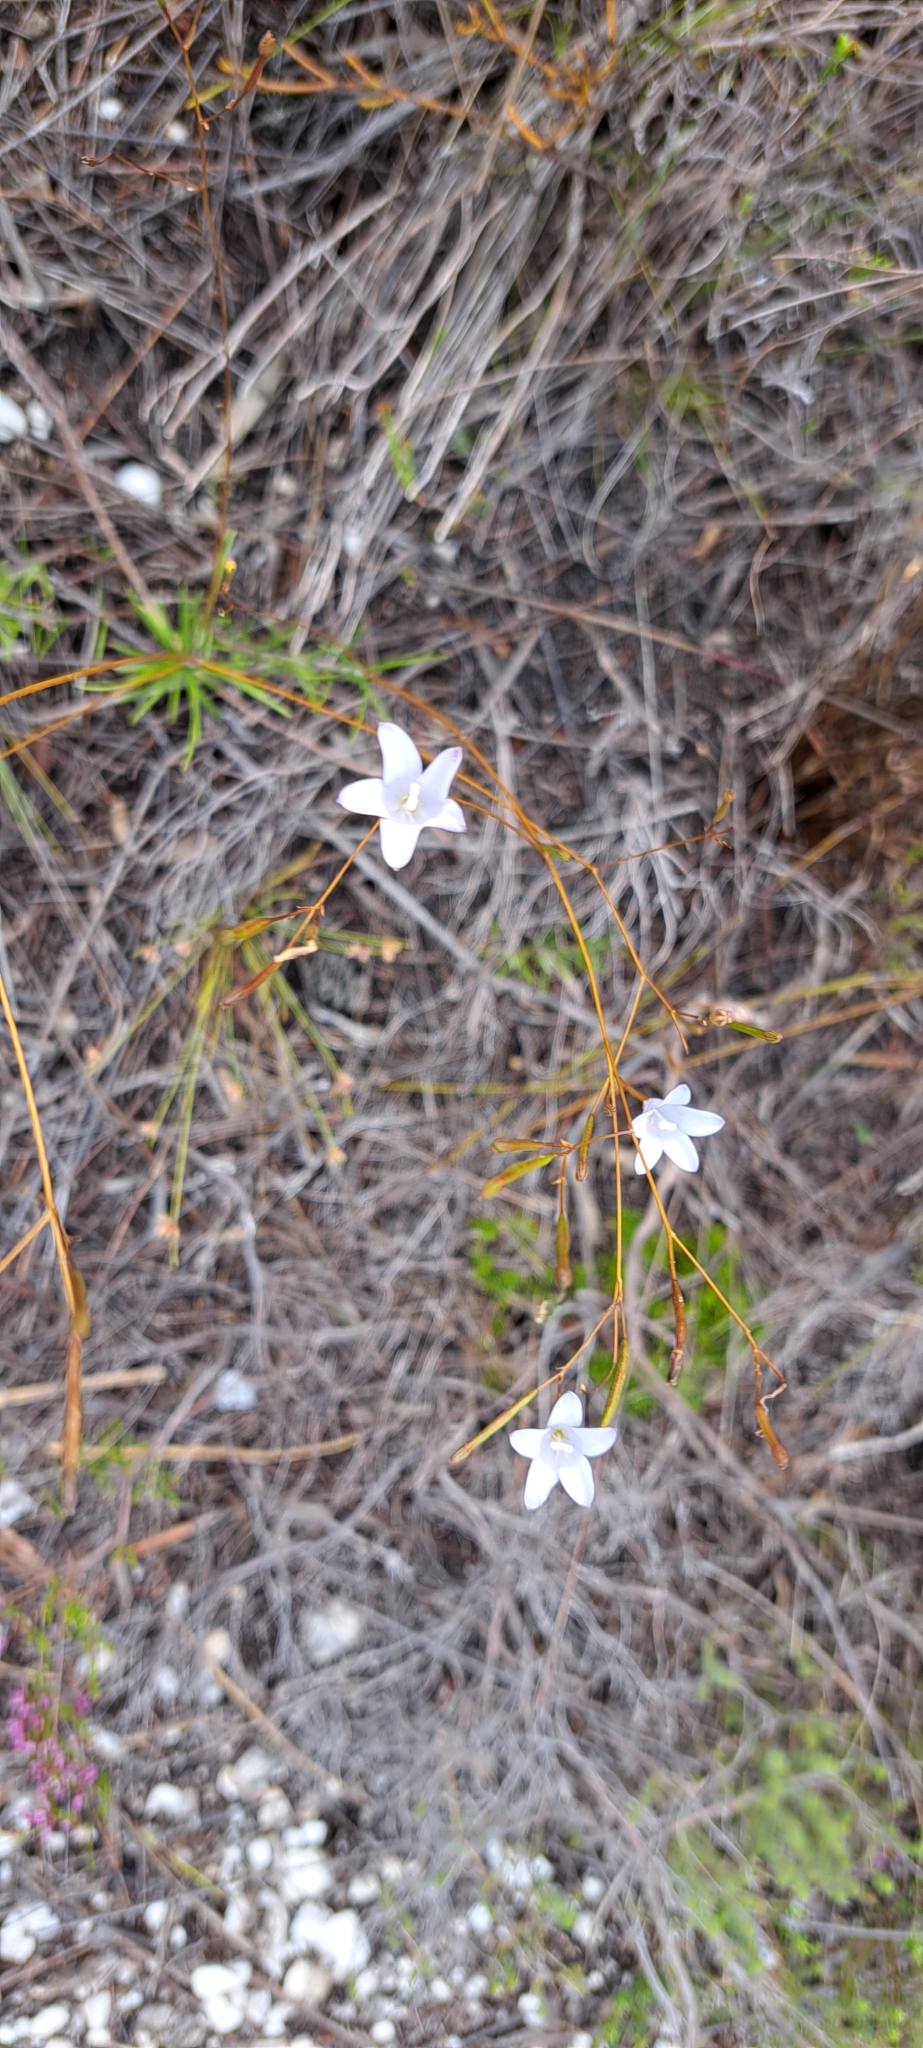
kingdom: Plantae
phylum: Tracheophyta
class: Magnoliopsida
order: Asterales
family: Campanulaceae
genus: Prismatocarpus
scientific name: Prismatocarpus brevilobus
